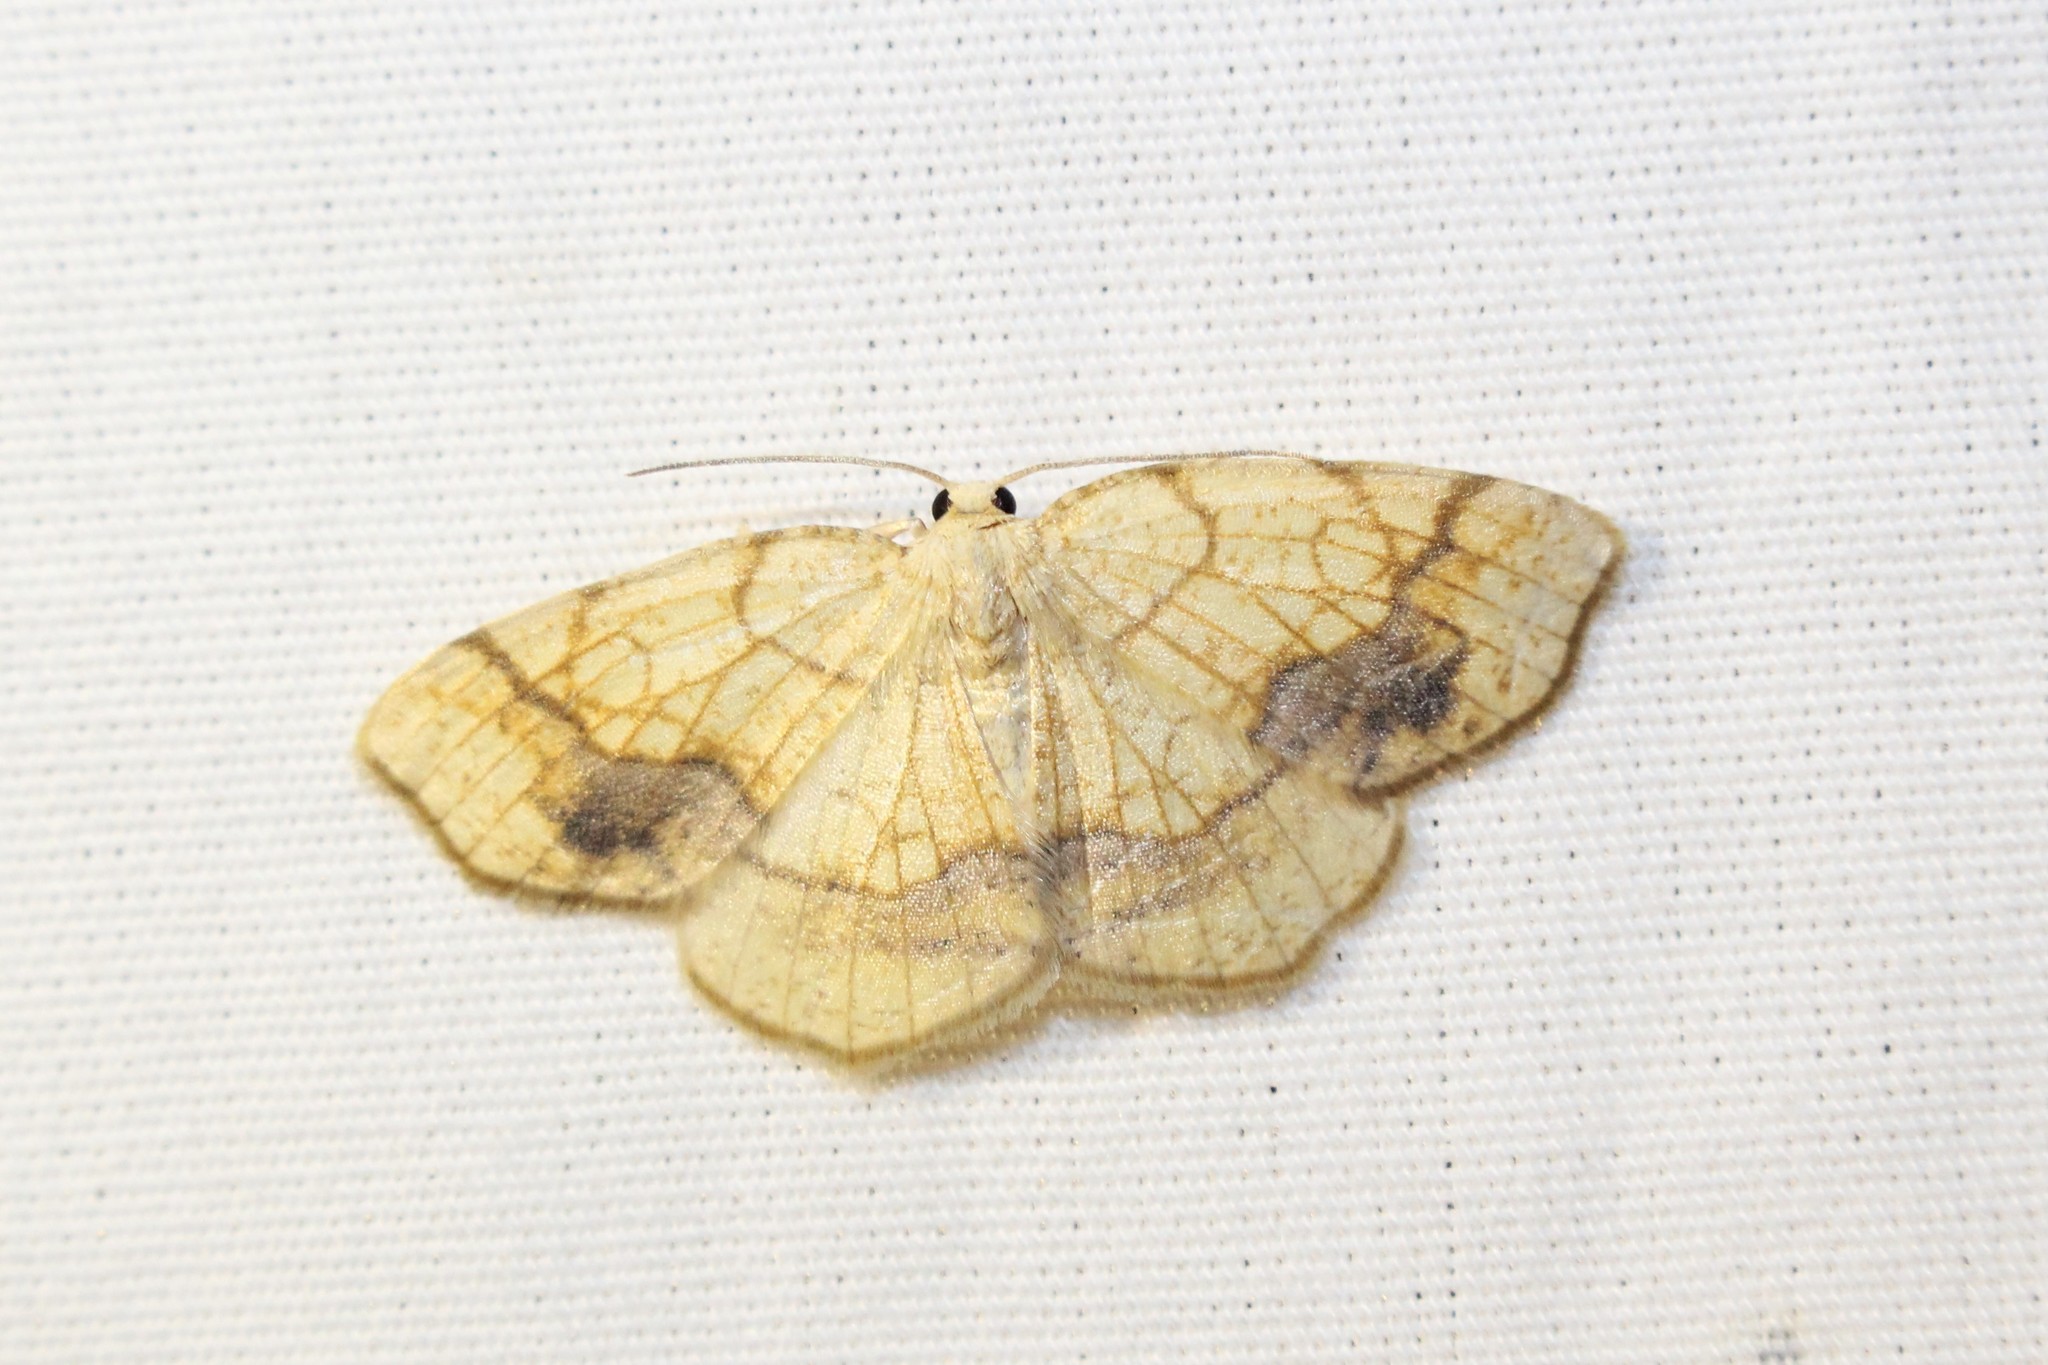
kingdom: Animalia
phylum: Arthropoda
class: Insecta
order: Lepidoptera
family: Geometridae
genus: Nematocampa
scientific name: Nematocampa resistaria
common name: Horned spanworm moth
